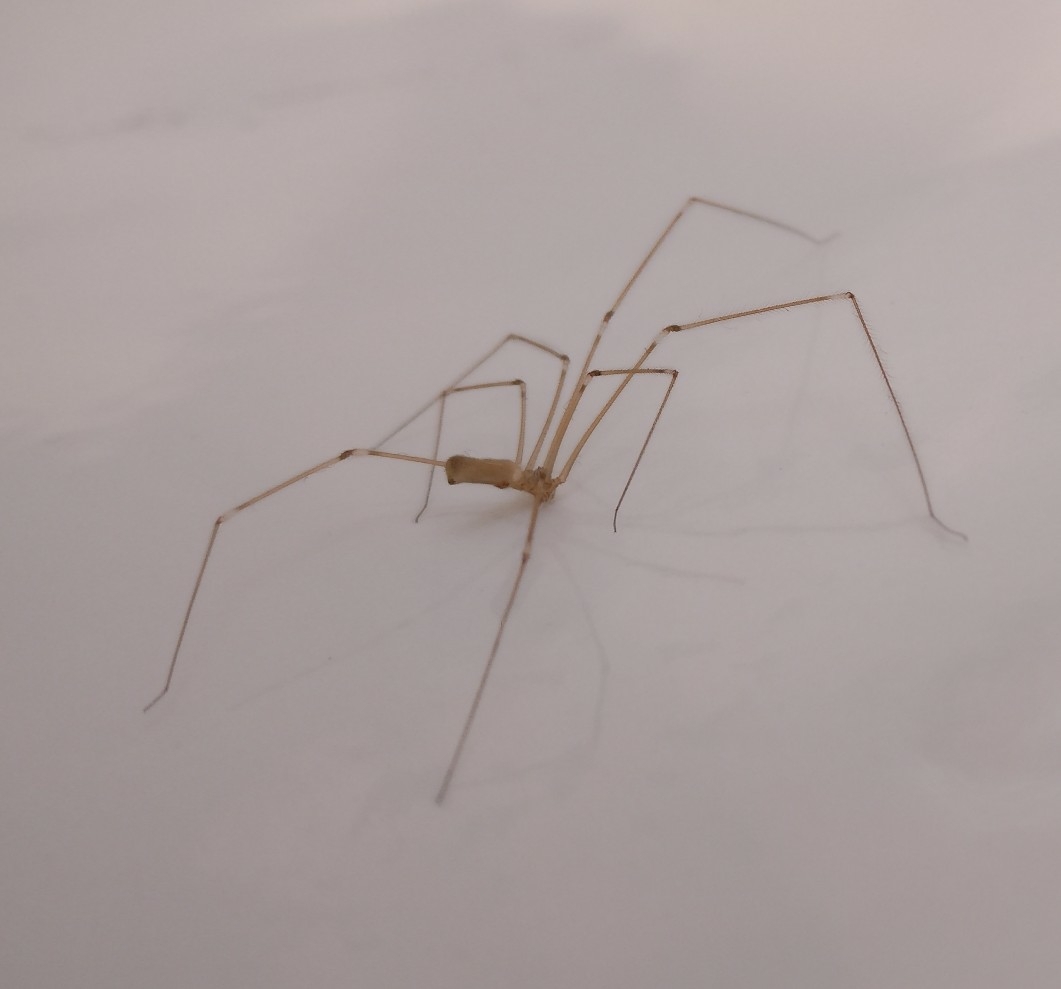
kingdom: Animalia
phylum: Arthropoda
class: Arachnida
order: Araneae
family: Pholcidae
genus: Pholcus
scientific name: Pholcus phalangioides
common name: Longbodied cellar spider
